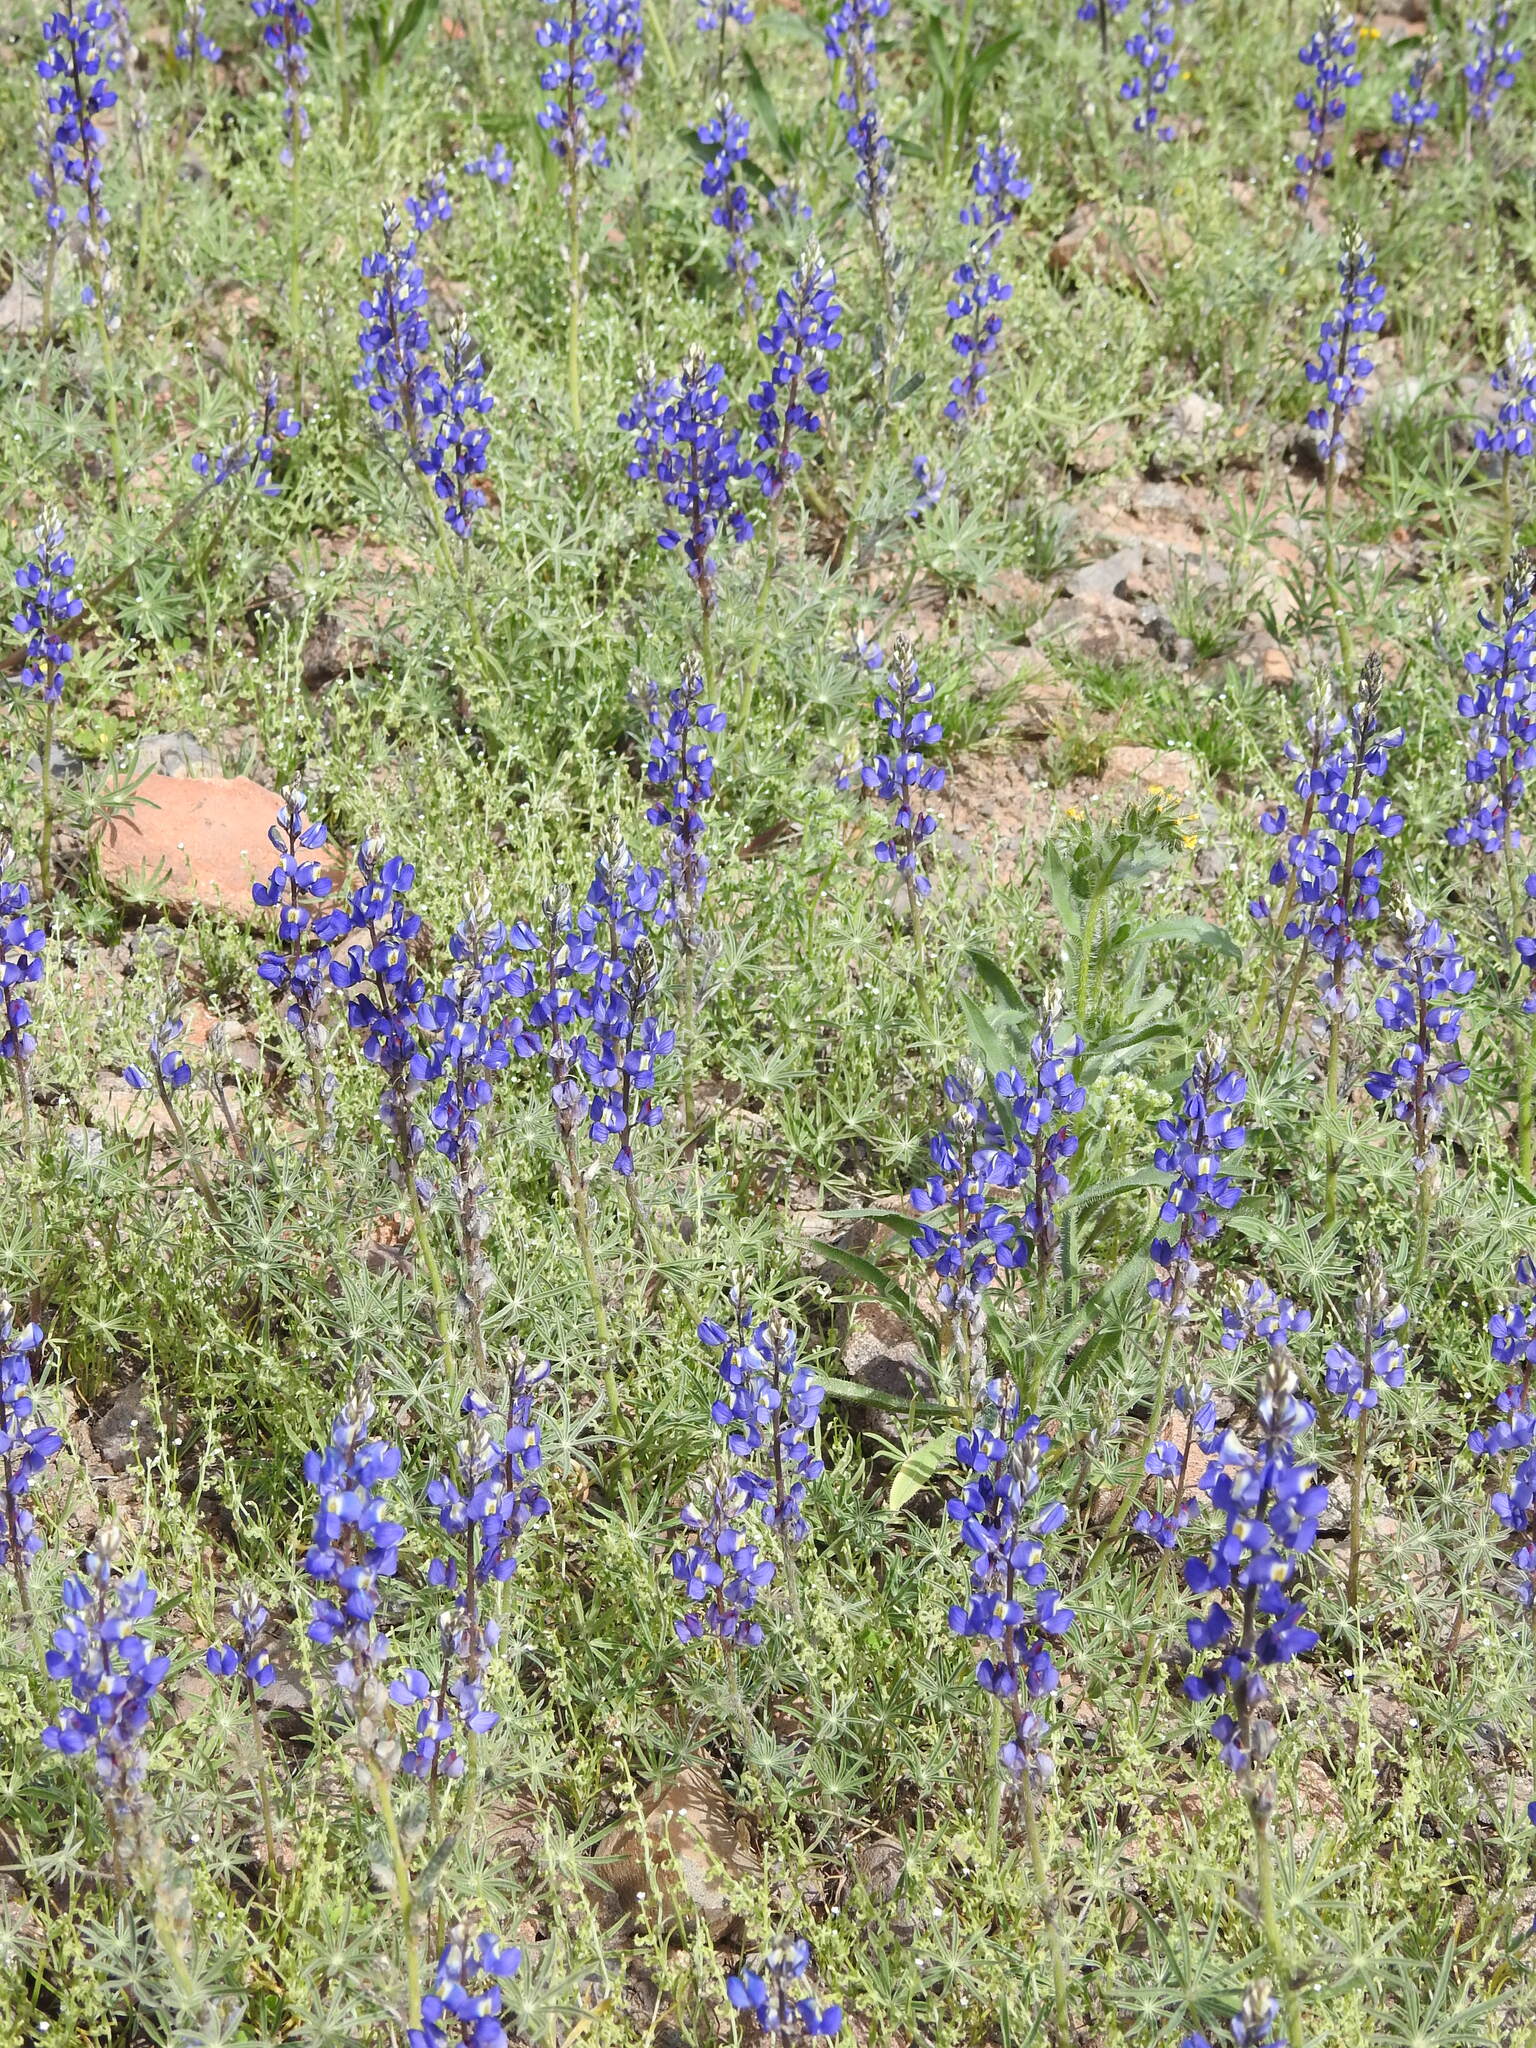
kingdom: Plantae
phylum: Tracheophyta
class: Magnoliopsida
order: Fabales
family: Fabaceae
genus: Lupinus
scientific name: Lupinus sparsiflorus
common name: Coulter's lupine
